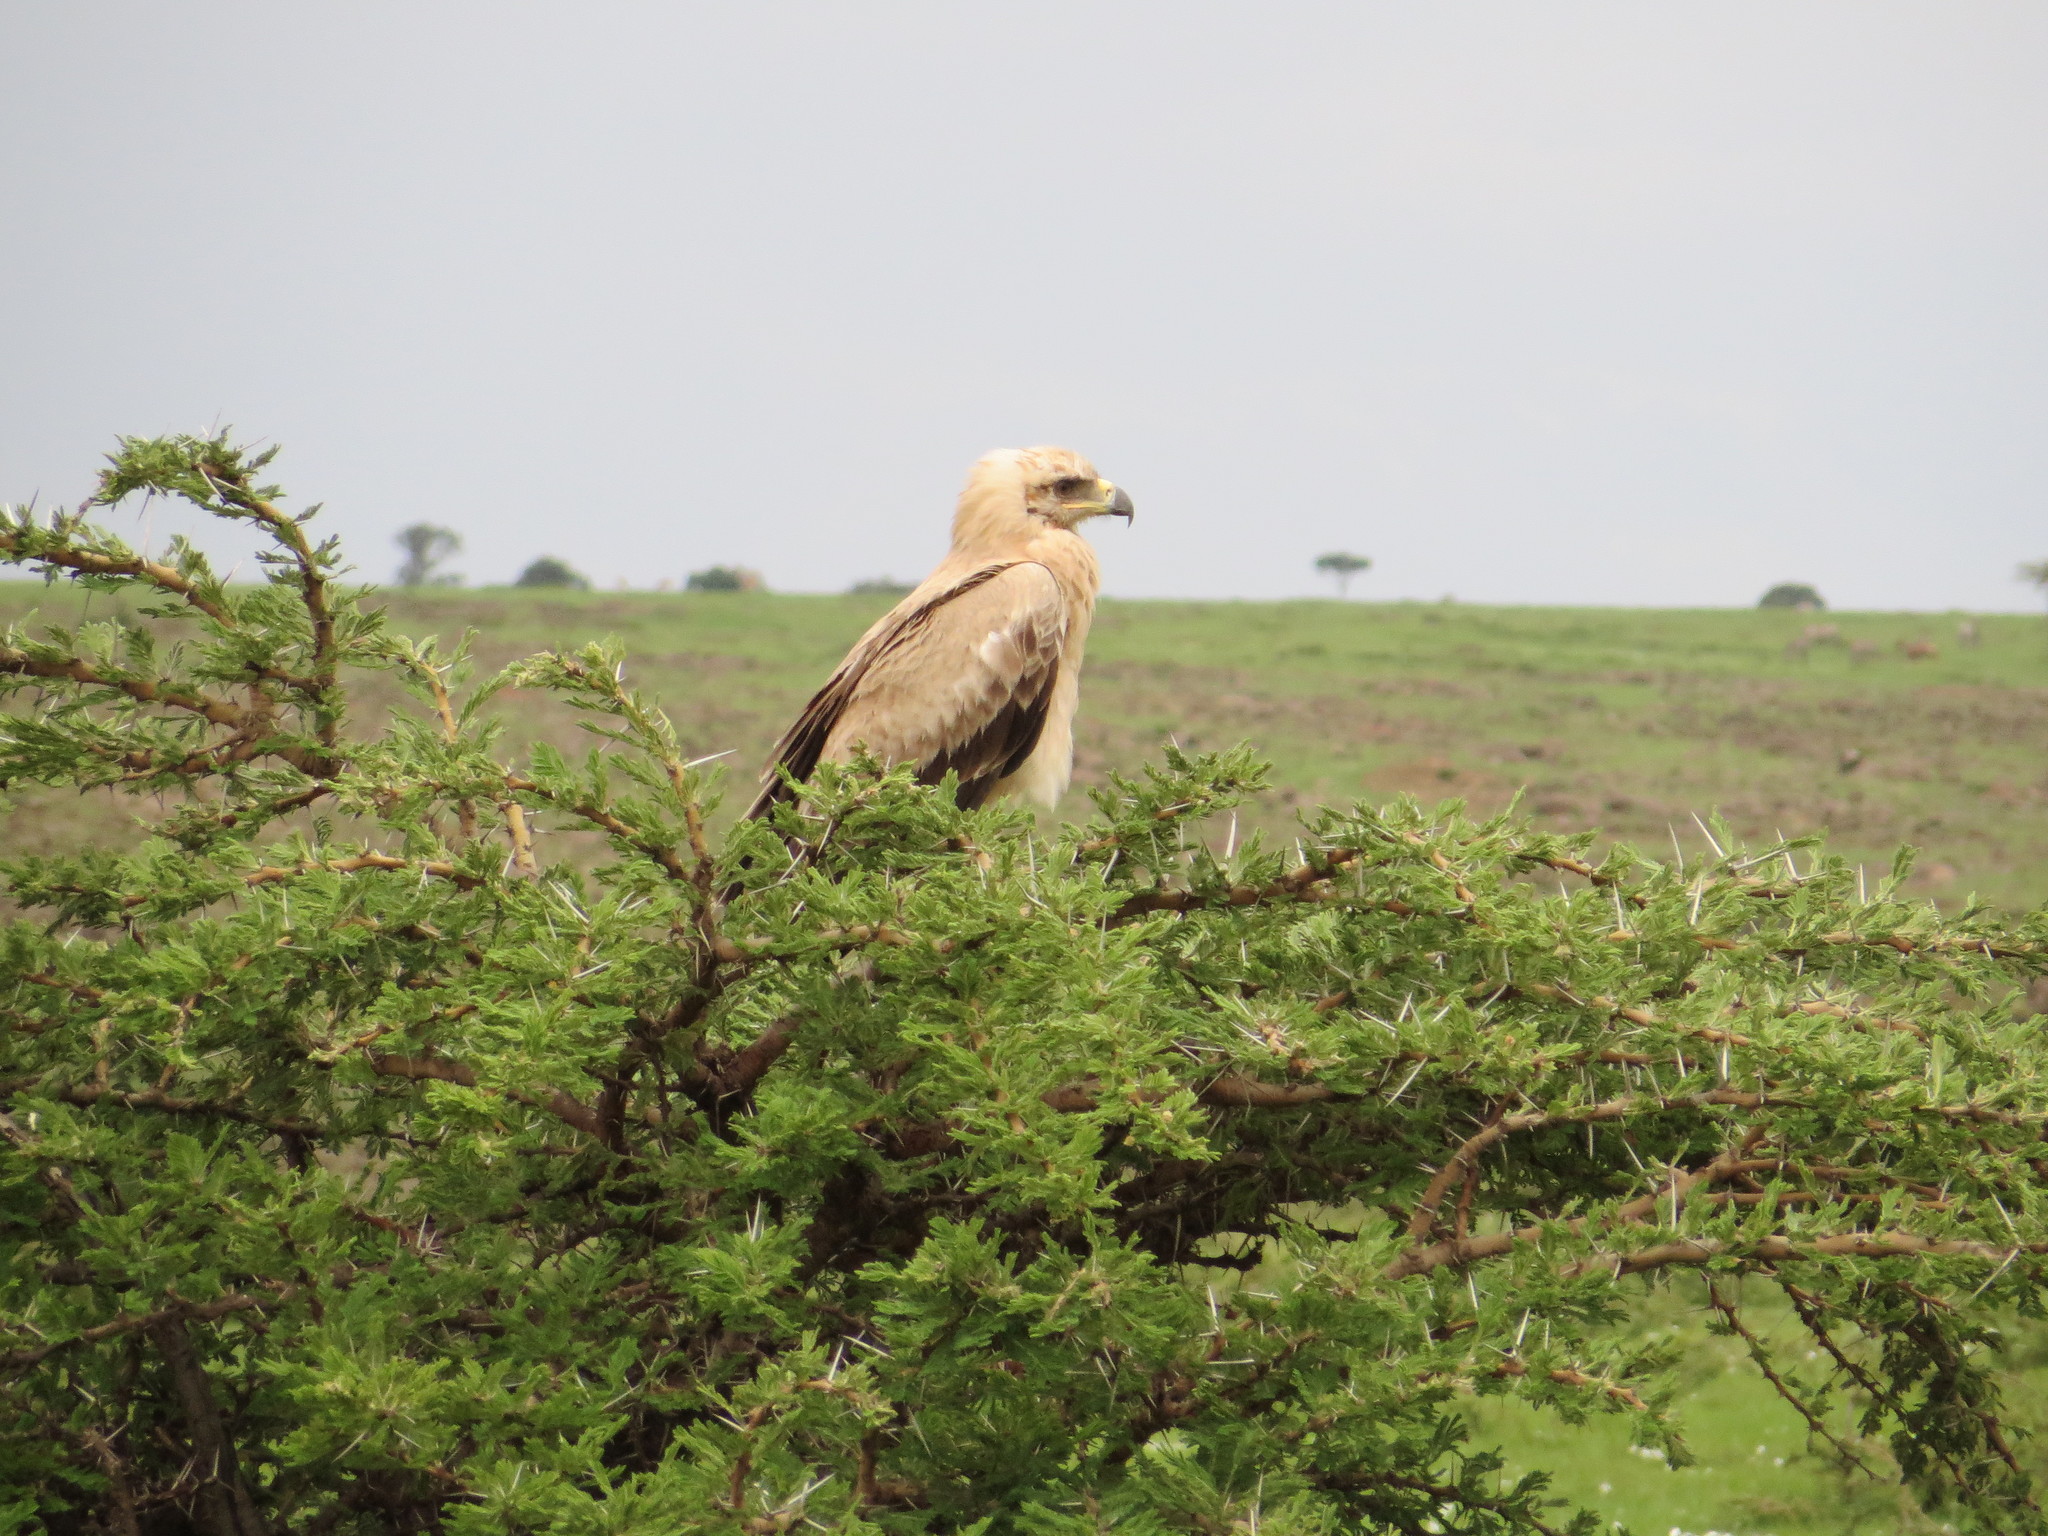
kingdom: Animalia
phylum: Chordata
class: Aves
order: Accipitriformes
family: Accipitridae
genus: Aquila
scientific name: Aquila rapax
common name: Tawny eagle
